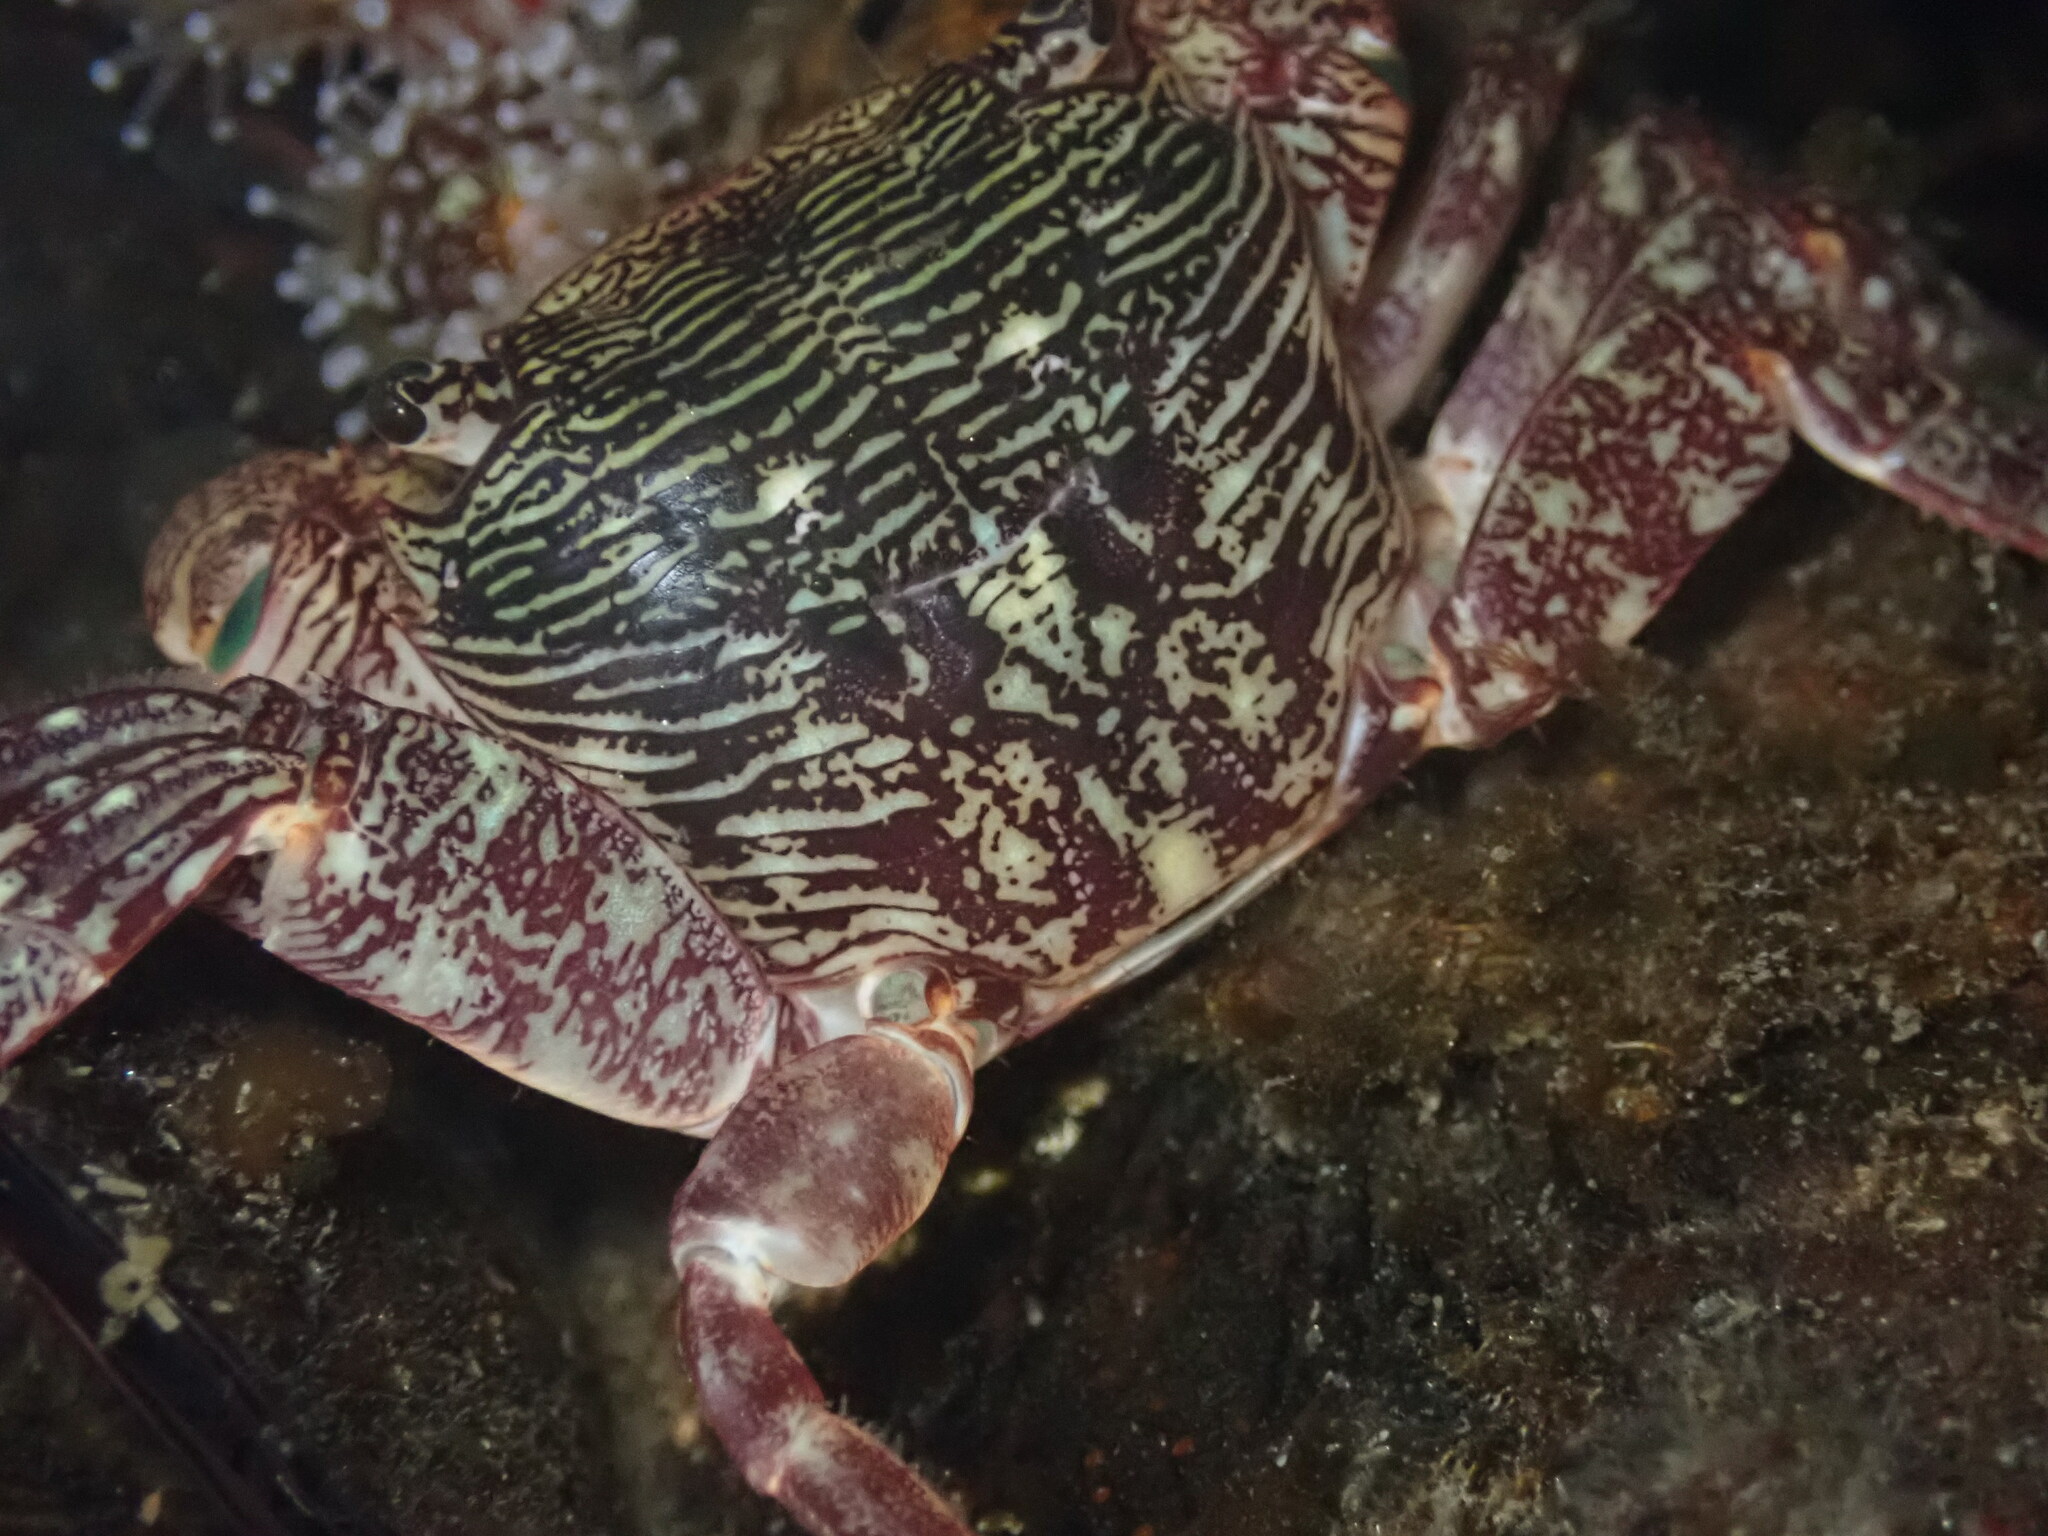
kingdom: Animalia
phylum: Arthropoda
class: Malacostraca
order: Decapoda
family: Grapsidae
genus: Pachygrapsus
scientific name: Pachygrapsus crassipes
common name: Striped shore crab
